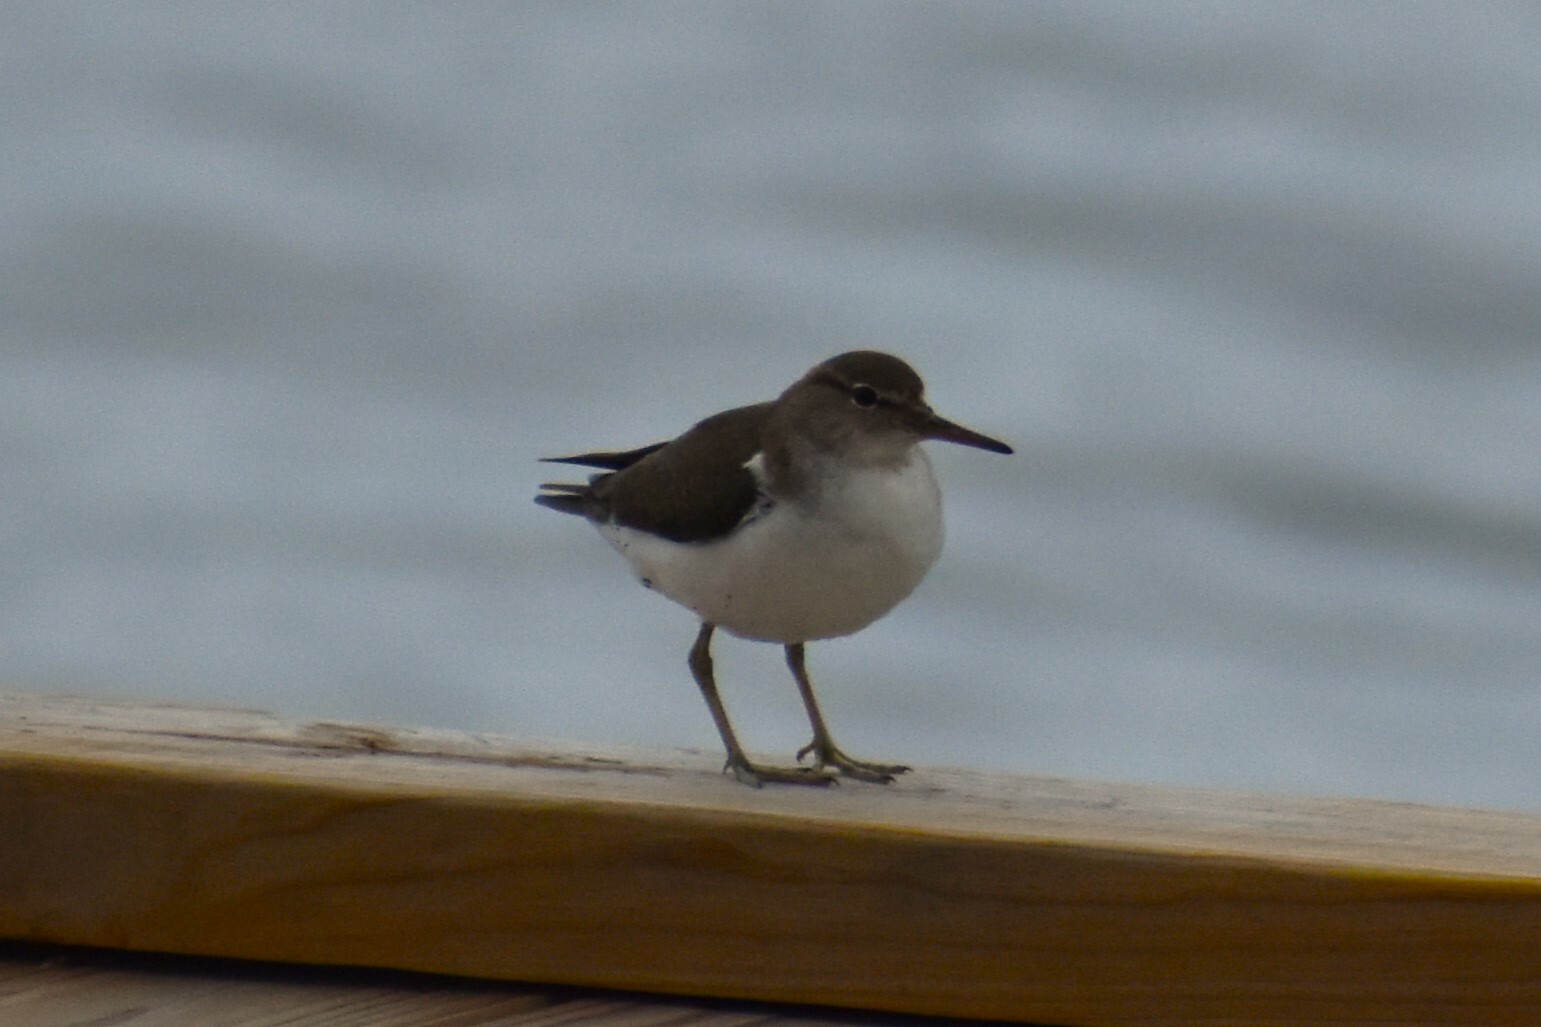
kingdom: Animalia
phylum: Chordata
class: Aves
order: Charadriiformes
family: Scolopacidae
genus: Actitis
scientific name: Actitis macularius
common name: Spotted sandpiper
